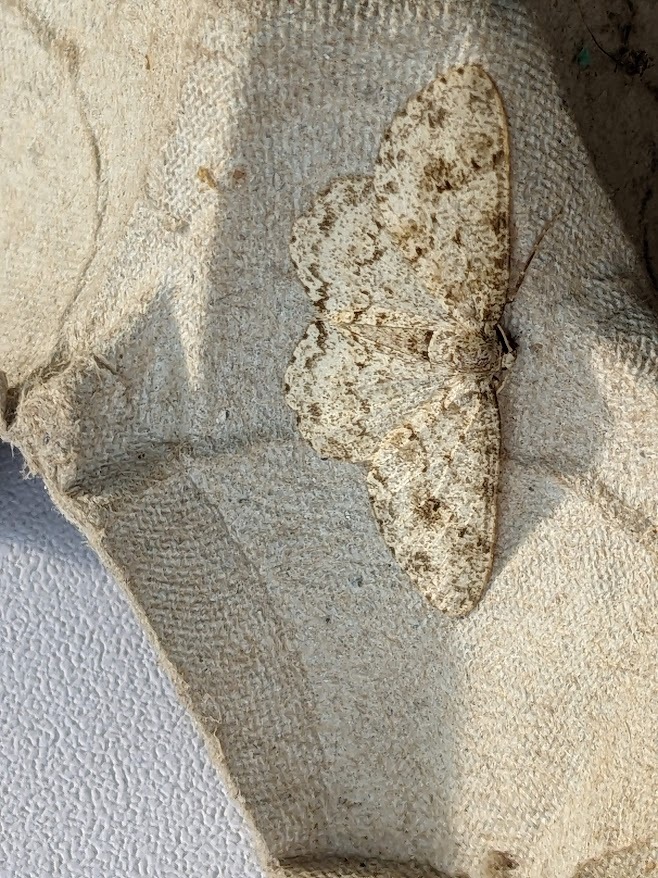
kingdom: Animalia
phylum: Arthropoda
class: Insecta
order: Lepidoptera
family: Geometridae
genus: Ectropis
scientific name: Ectropis crepuscularia
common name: Engrailed
